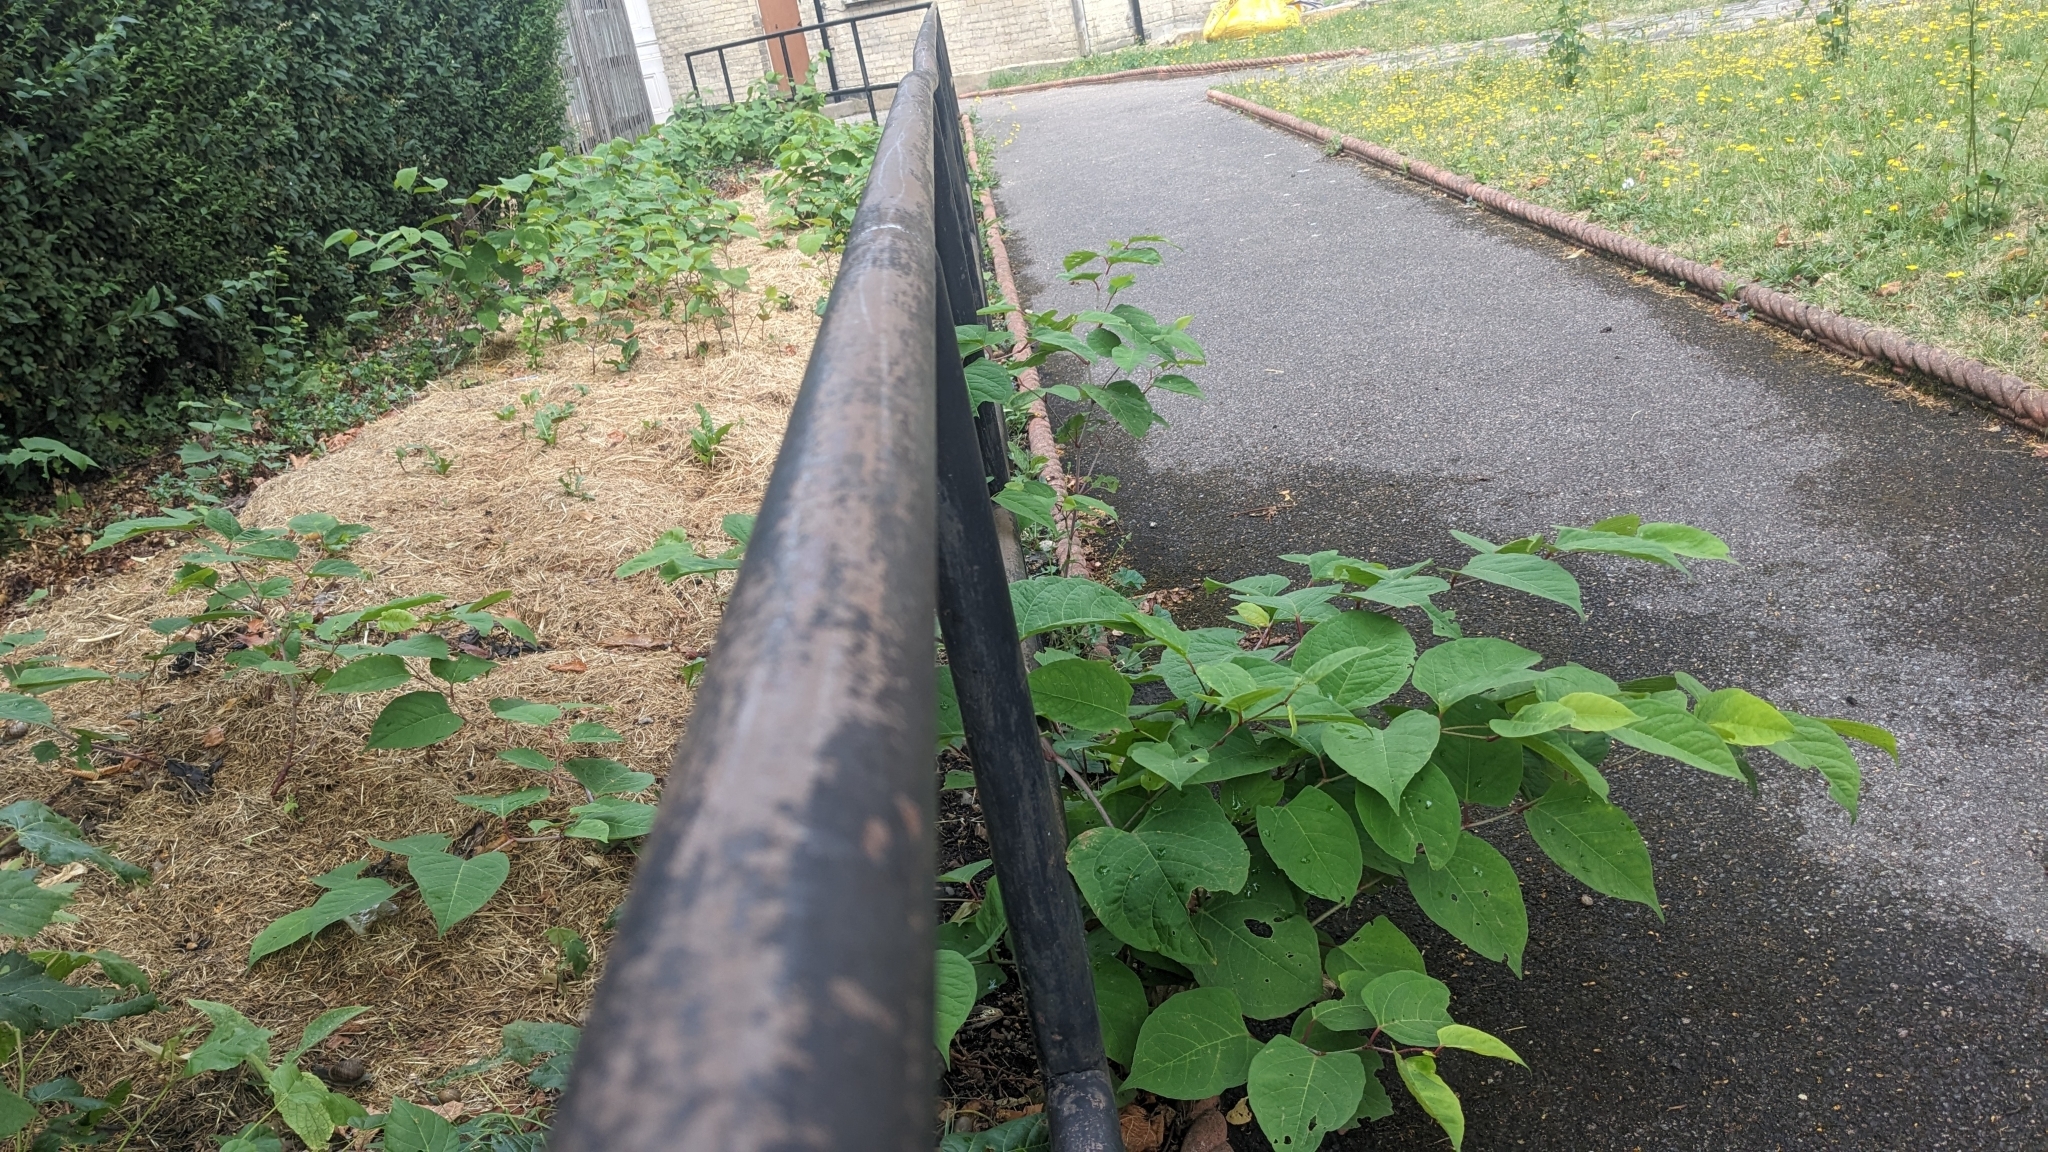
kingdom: Plantae
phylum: Tracheophyta
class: Magnoliopsida
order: Caryophyllales
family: Polygonaceae
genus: Reynoutria
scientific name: Reynoutria japonica
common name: Japanese knotweed
